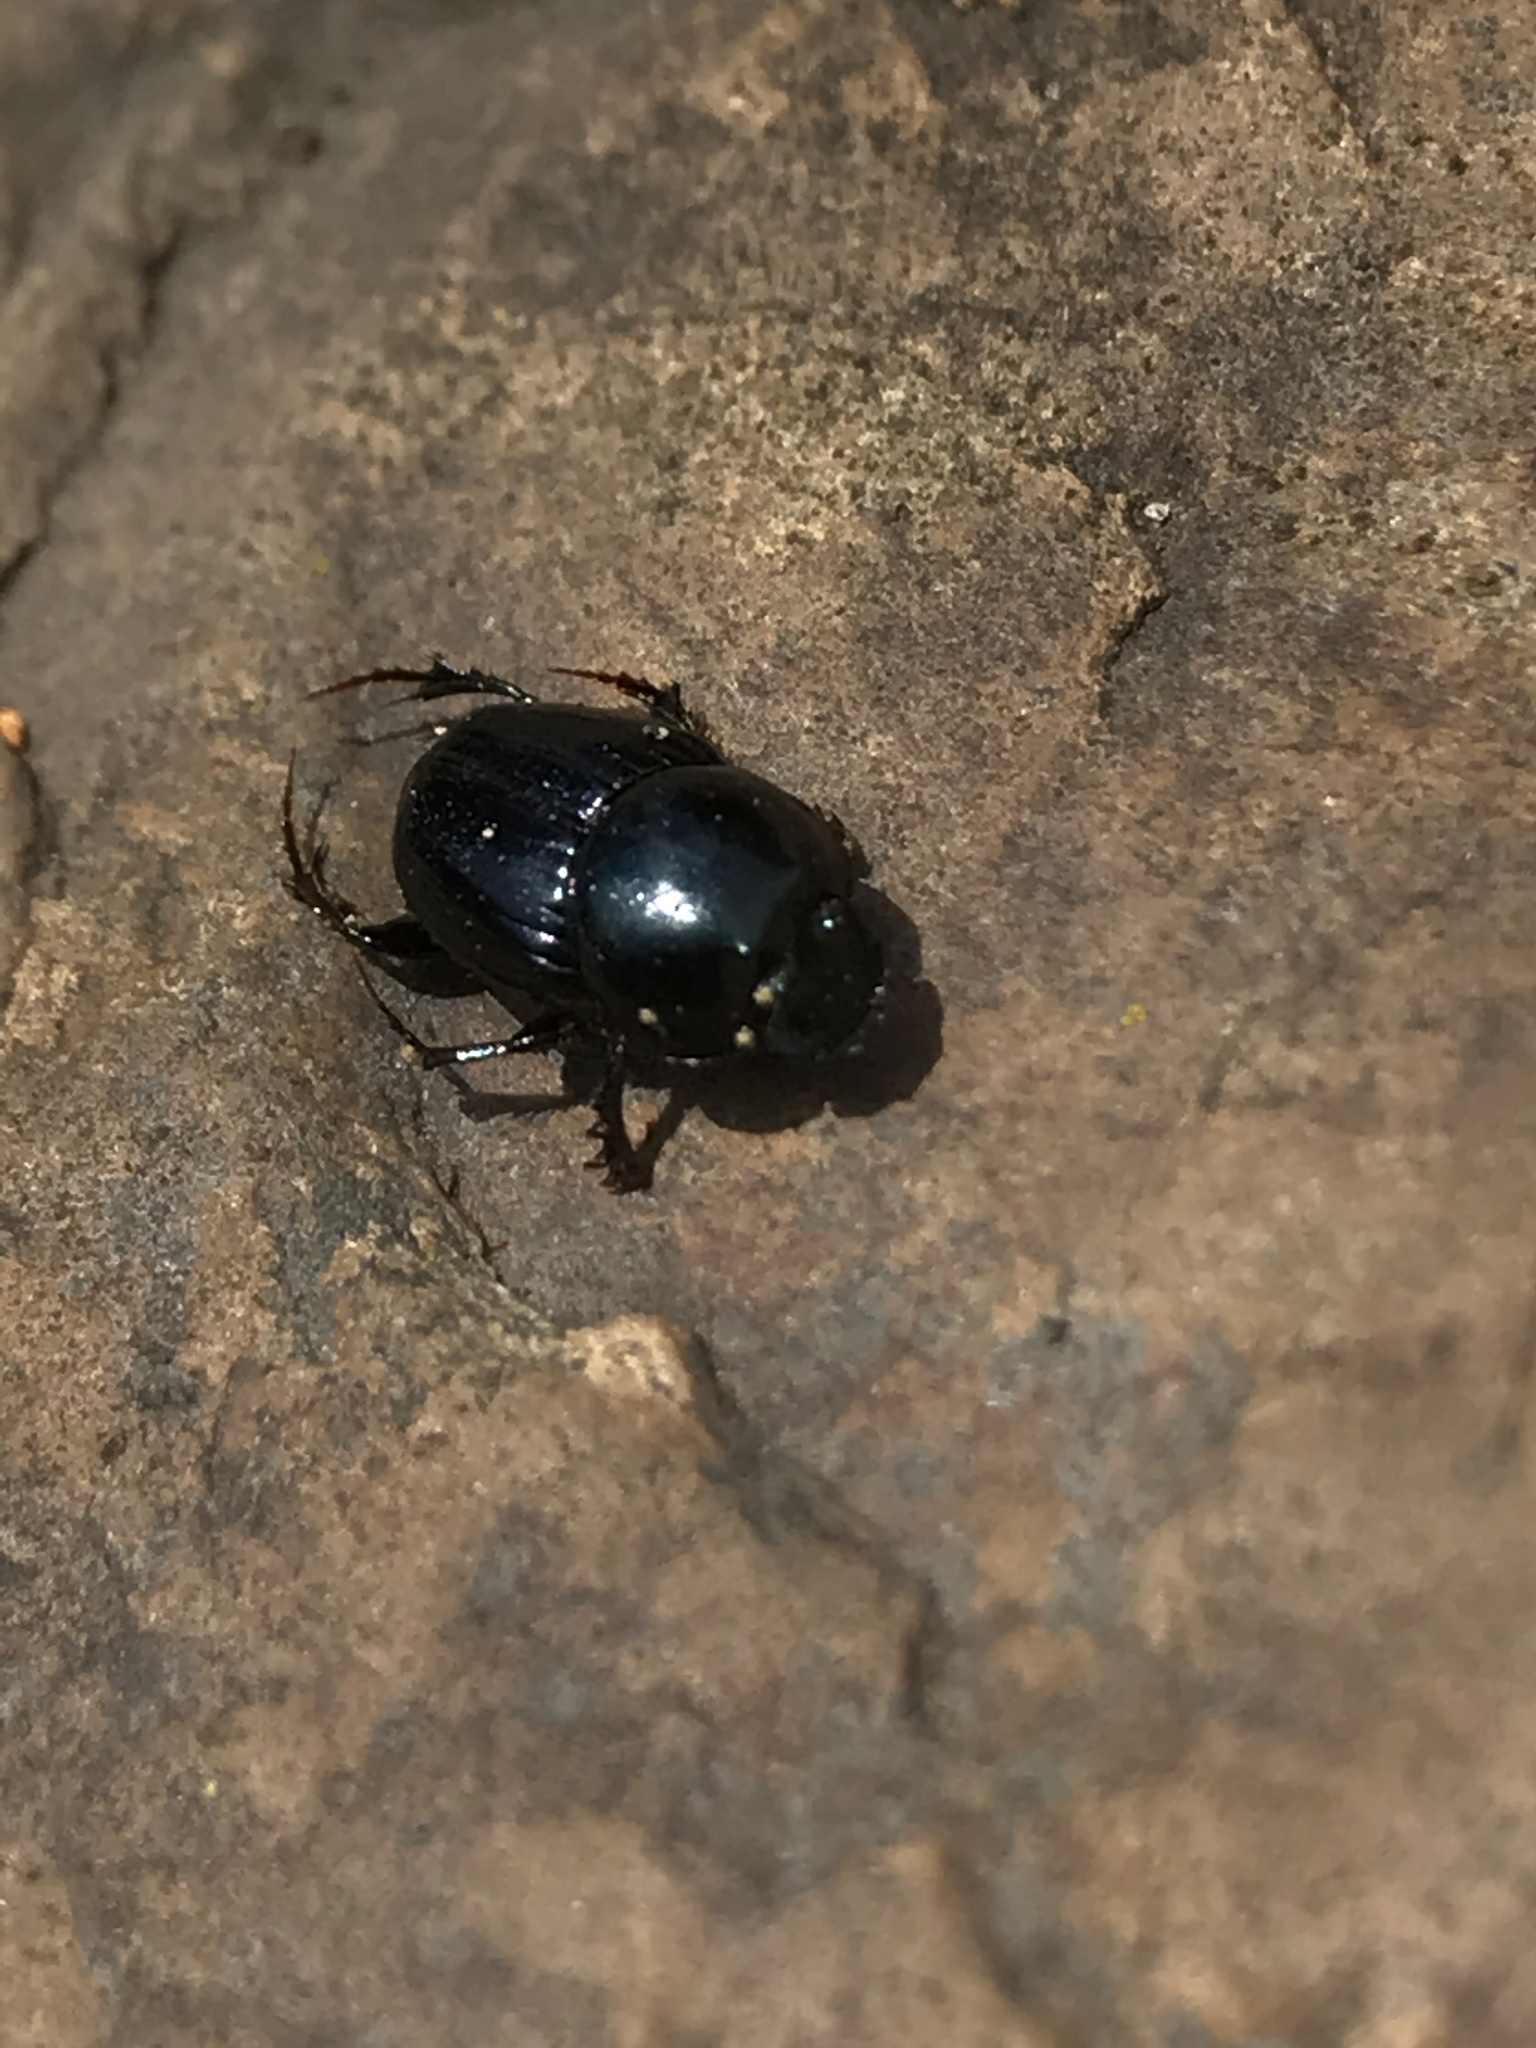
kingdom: Animalia
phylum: Arthropoda
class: Insecta
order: Coleoptera
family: Scarabaeidae
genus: Onthophagus
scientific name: Onthophagus curvicornis
